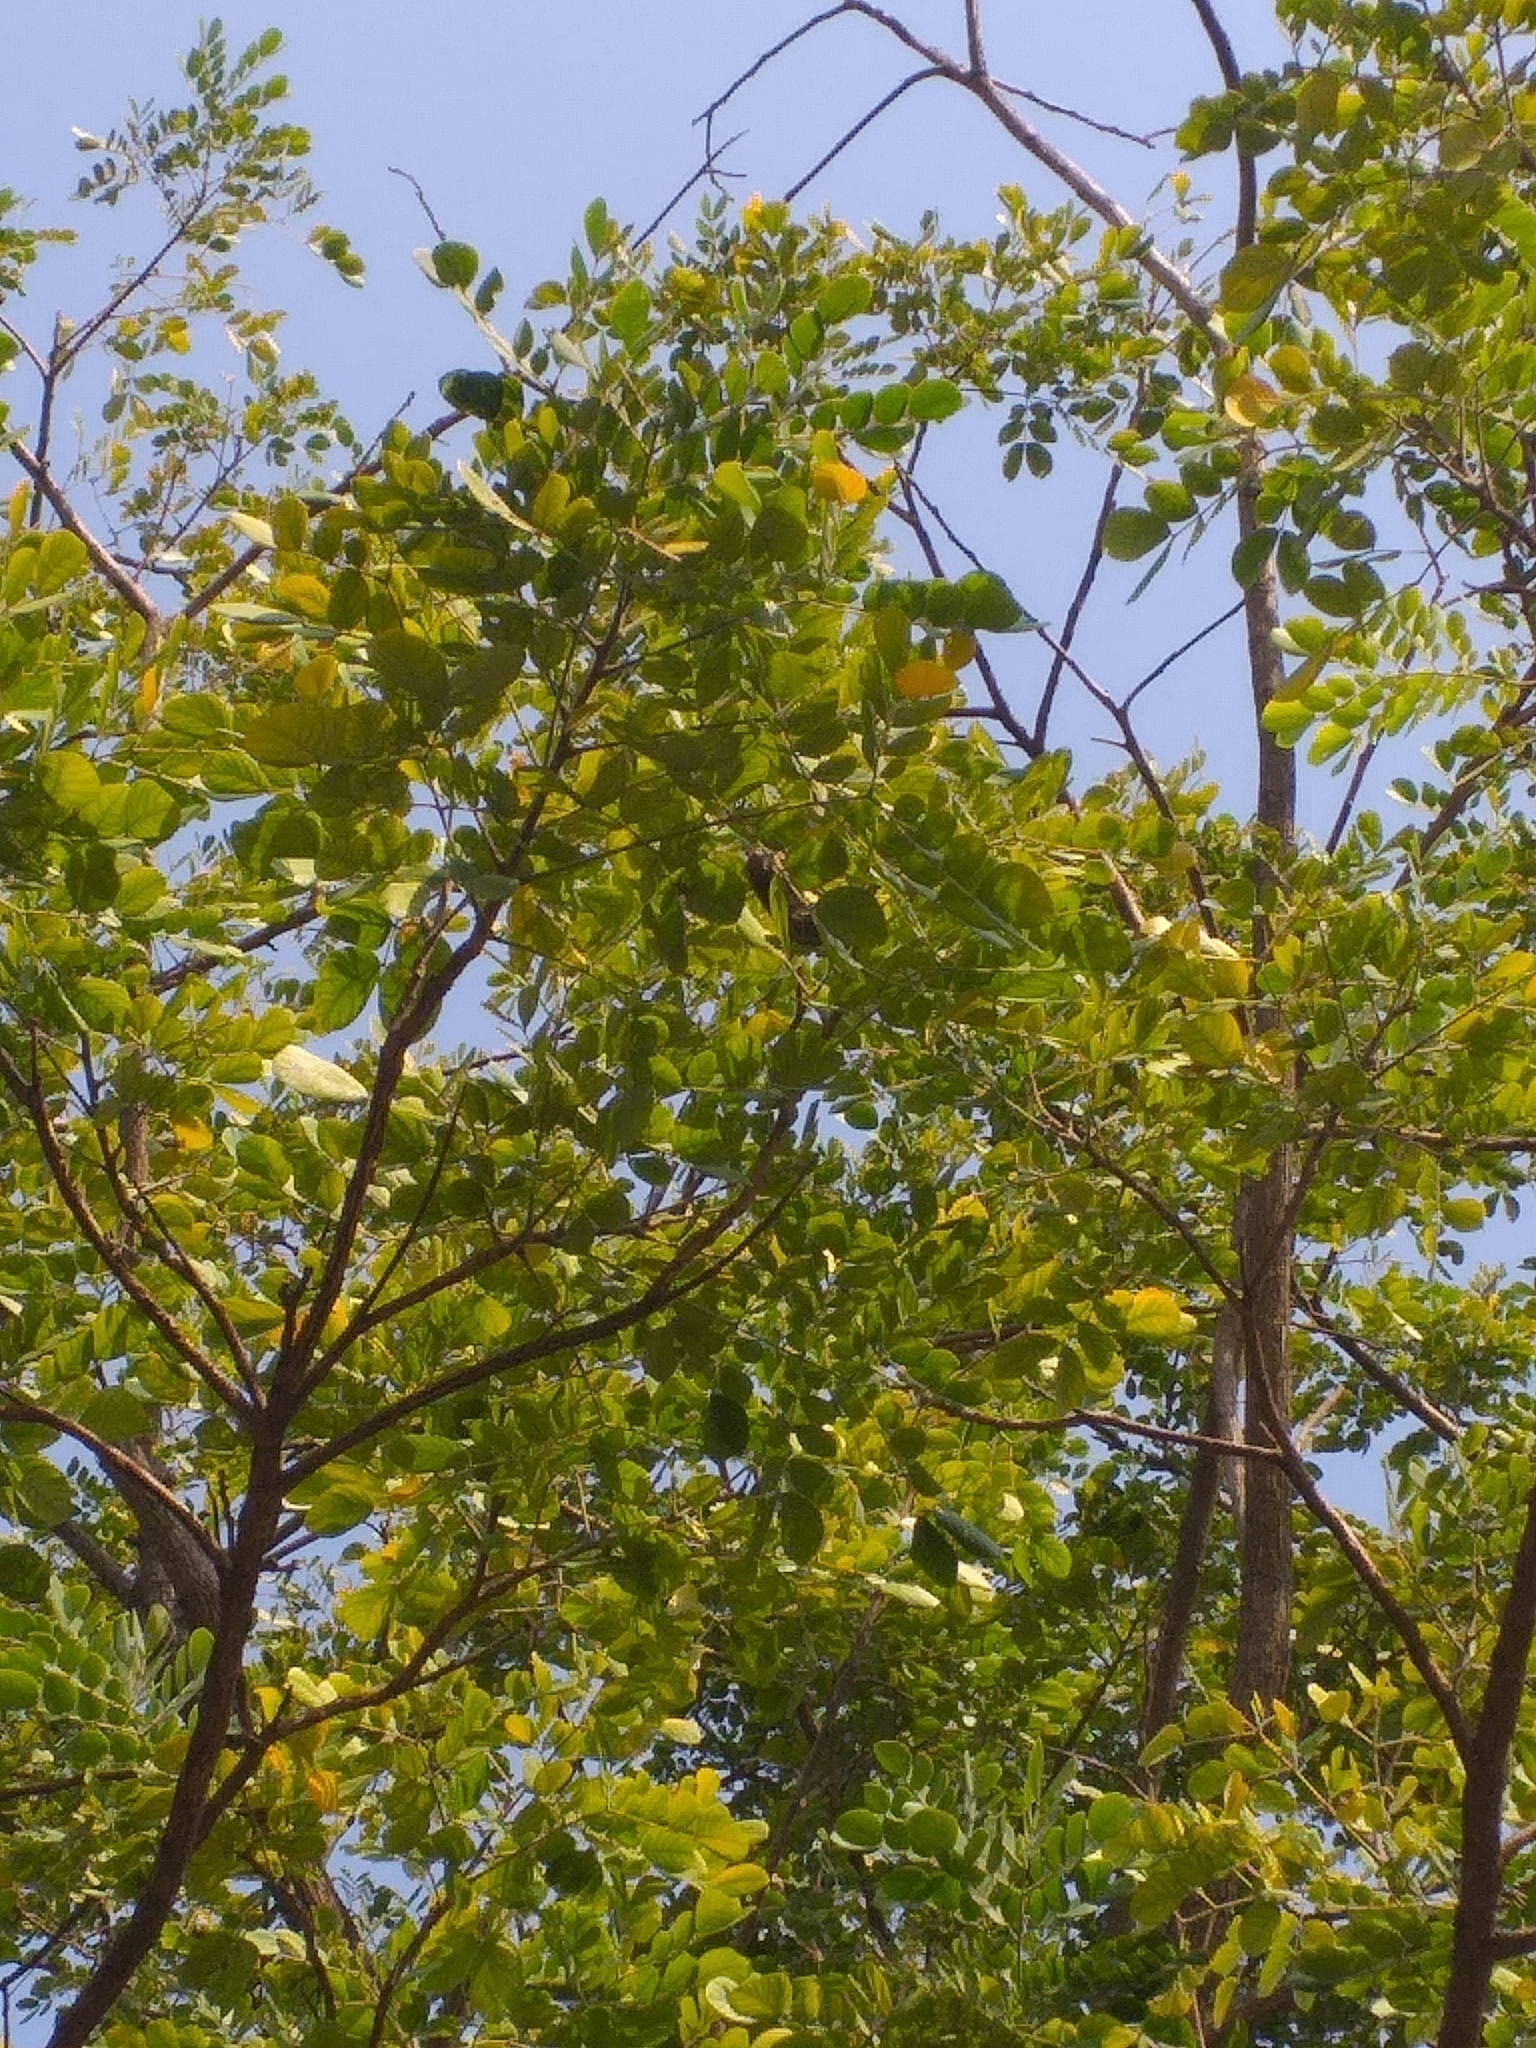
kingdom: Plantae
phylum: Tracheophyta
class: Magnoliopsida
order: Fabales
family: Fabaceae
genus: Samanea
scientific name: Samanea tubulosa
